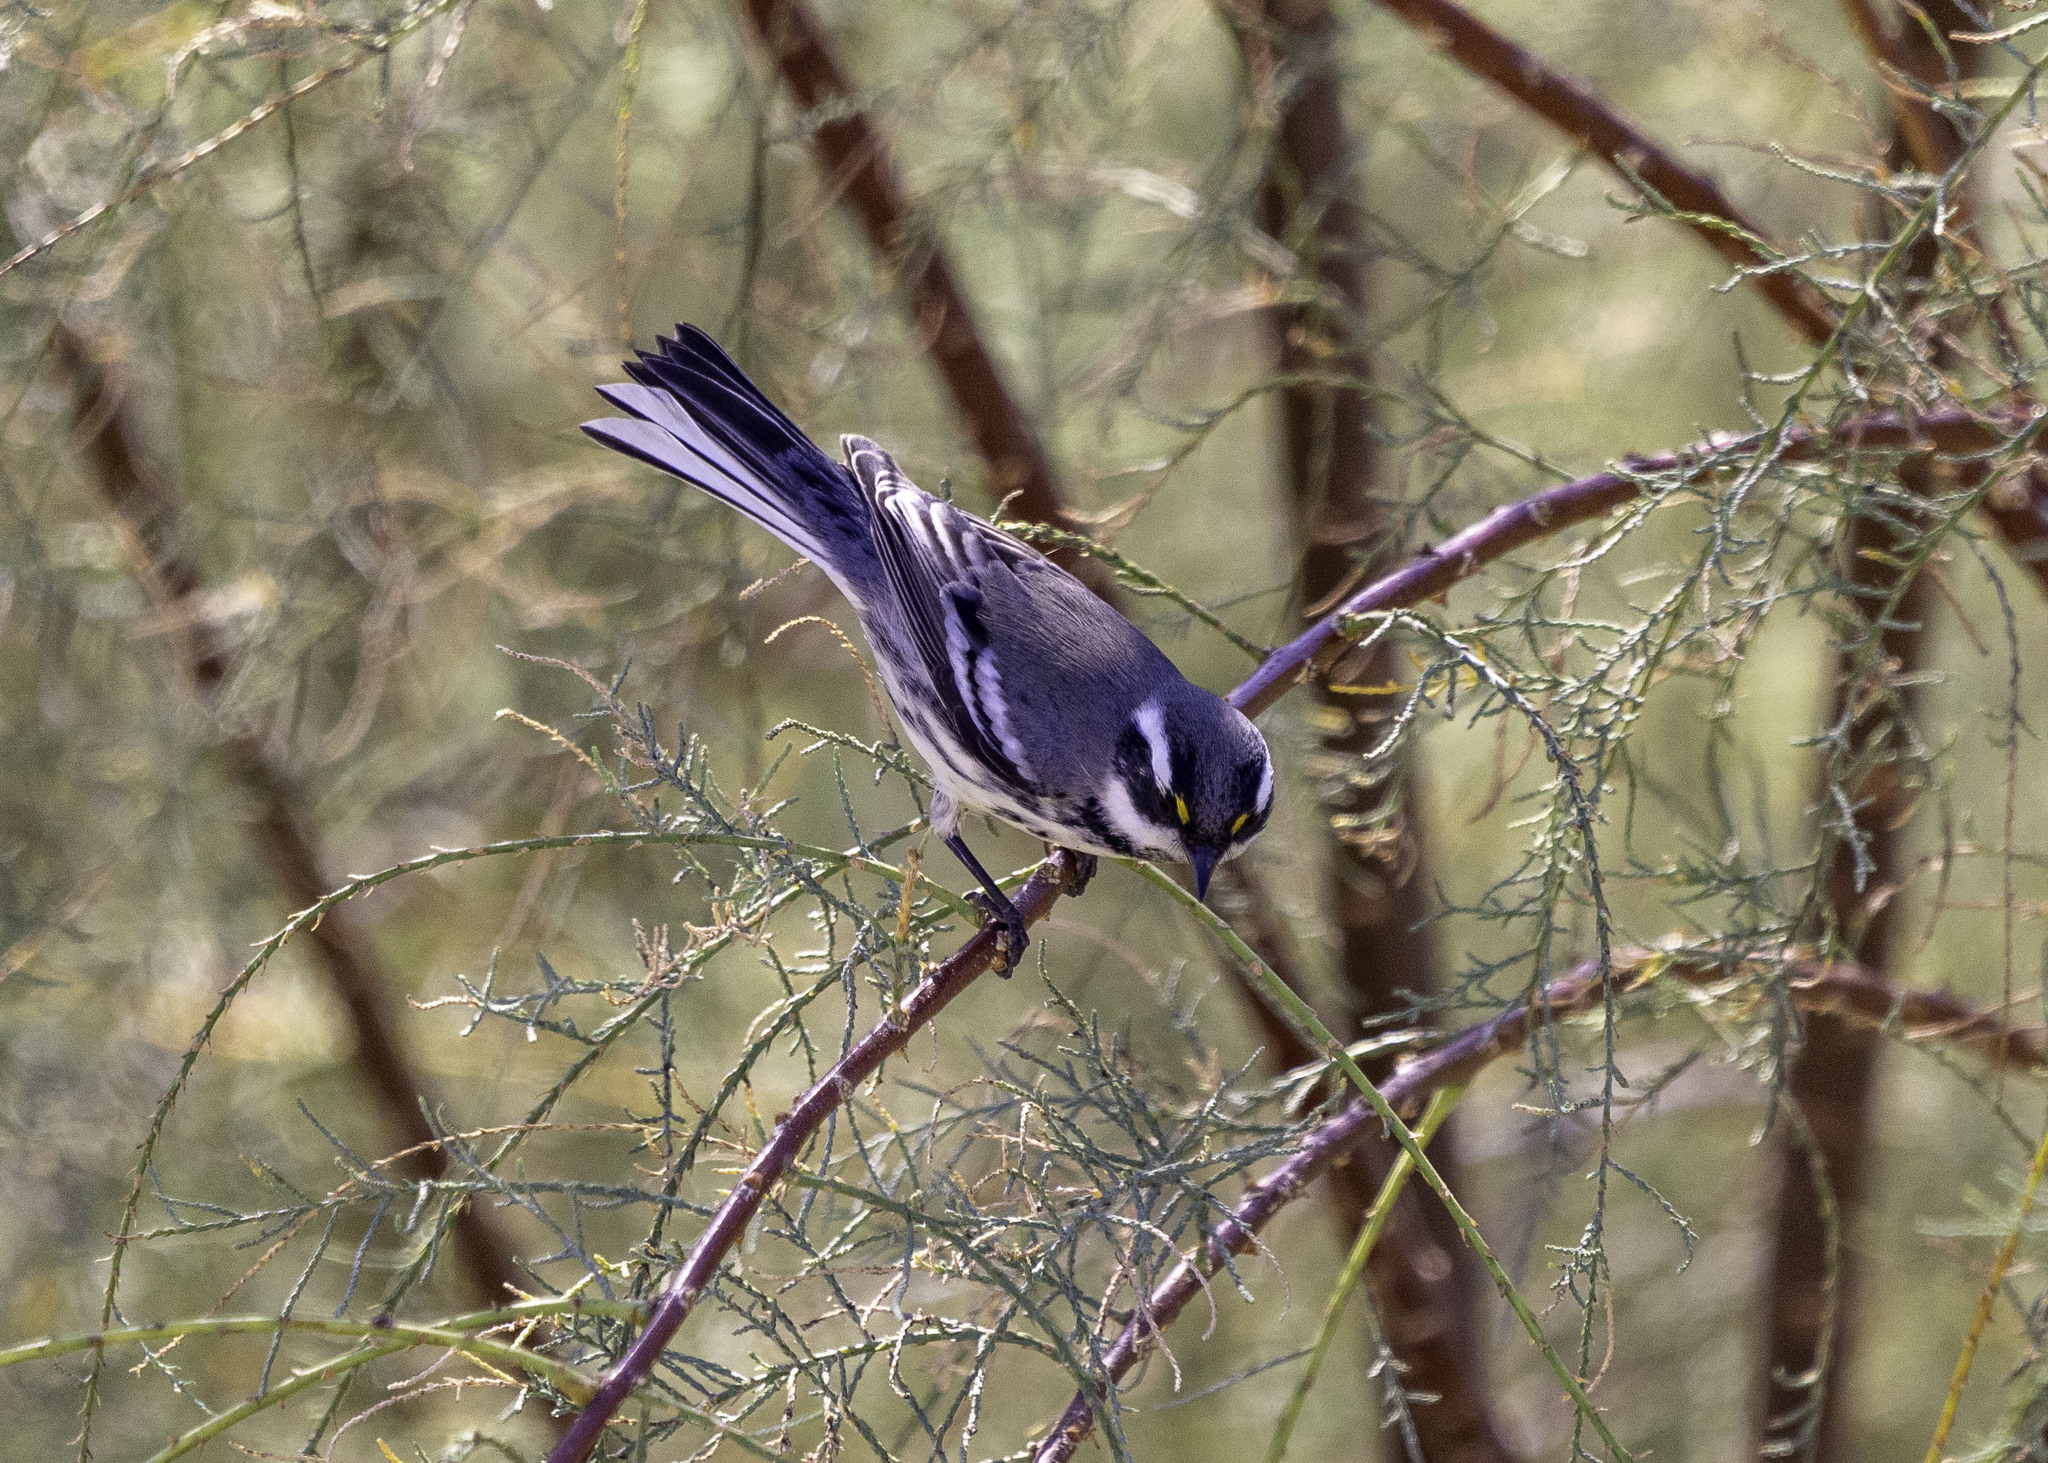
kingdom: Animalia
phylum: Chordata
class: Aves
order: Passeriformes
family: Parulidae
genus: Setophaga
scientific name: Setophaga nigrescens
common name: Black-throated gray warbler
